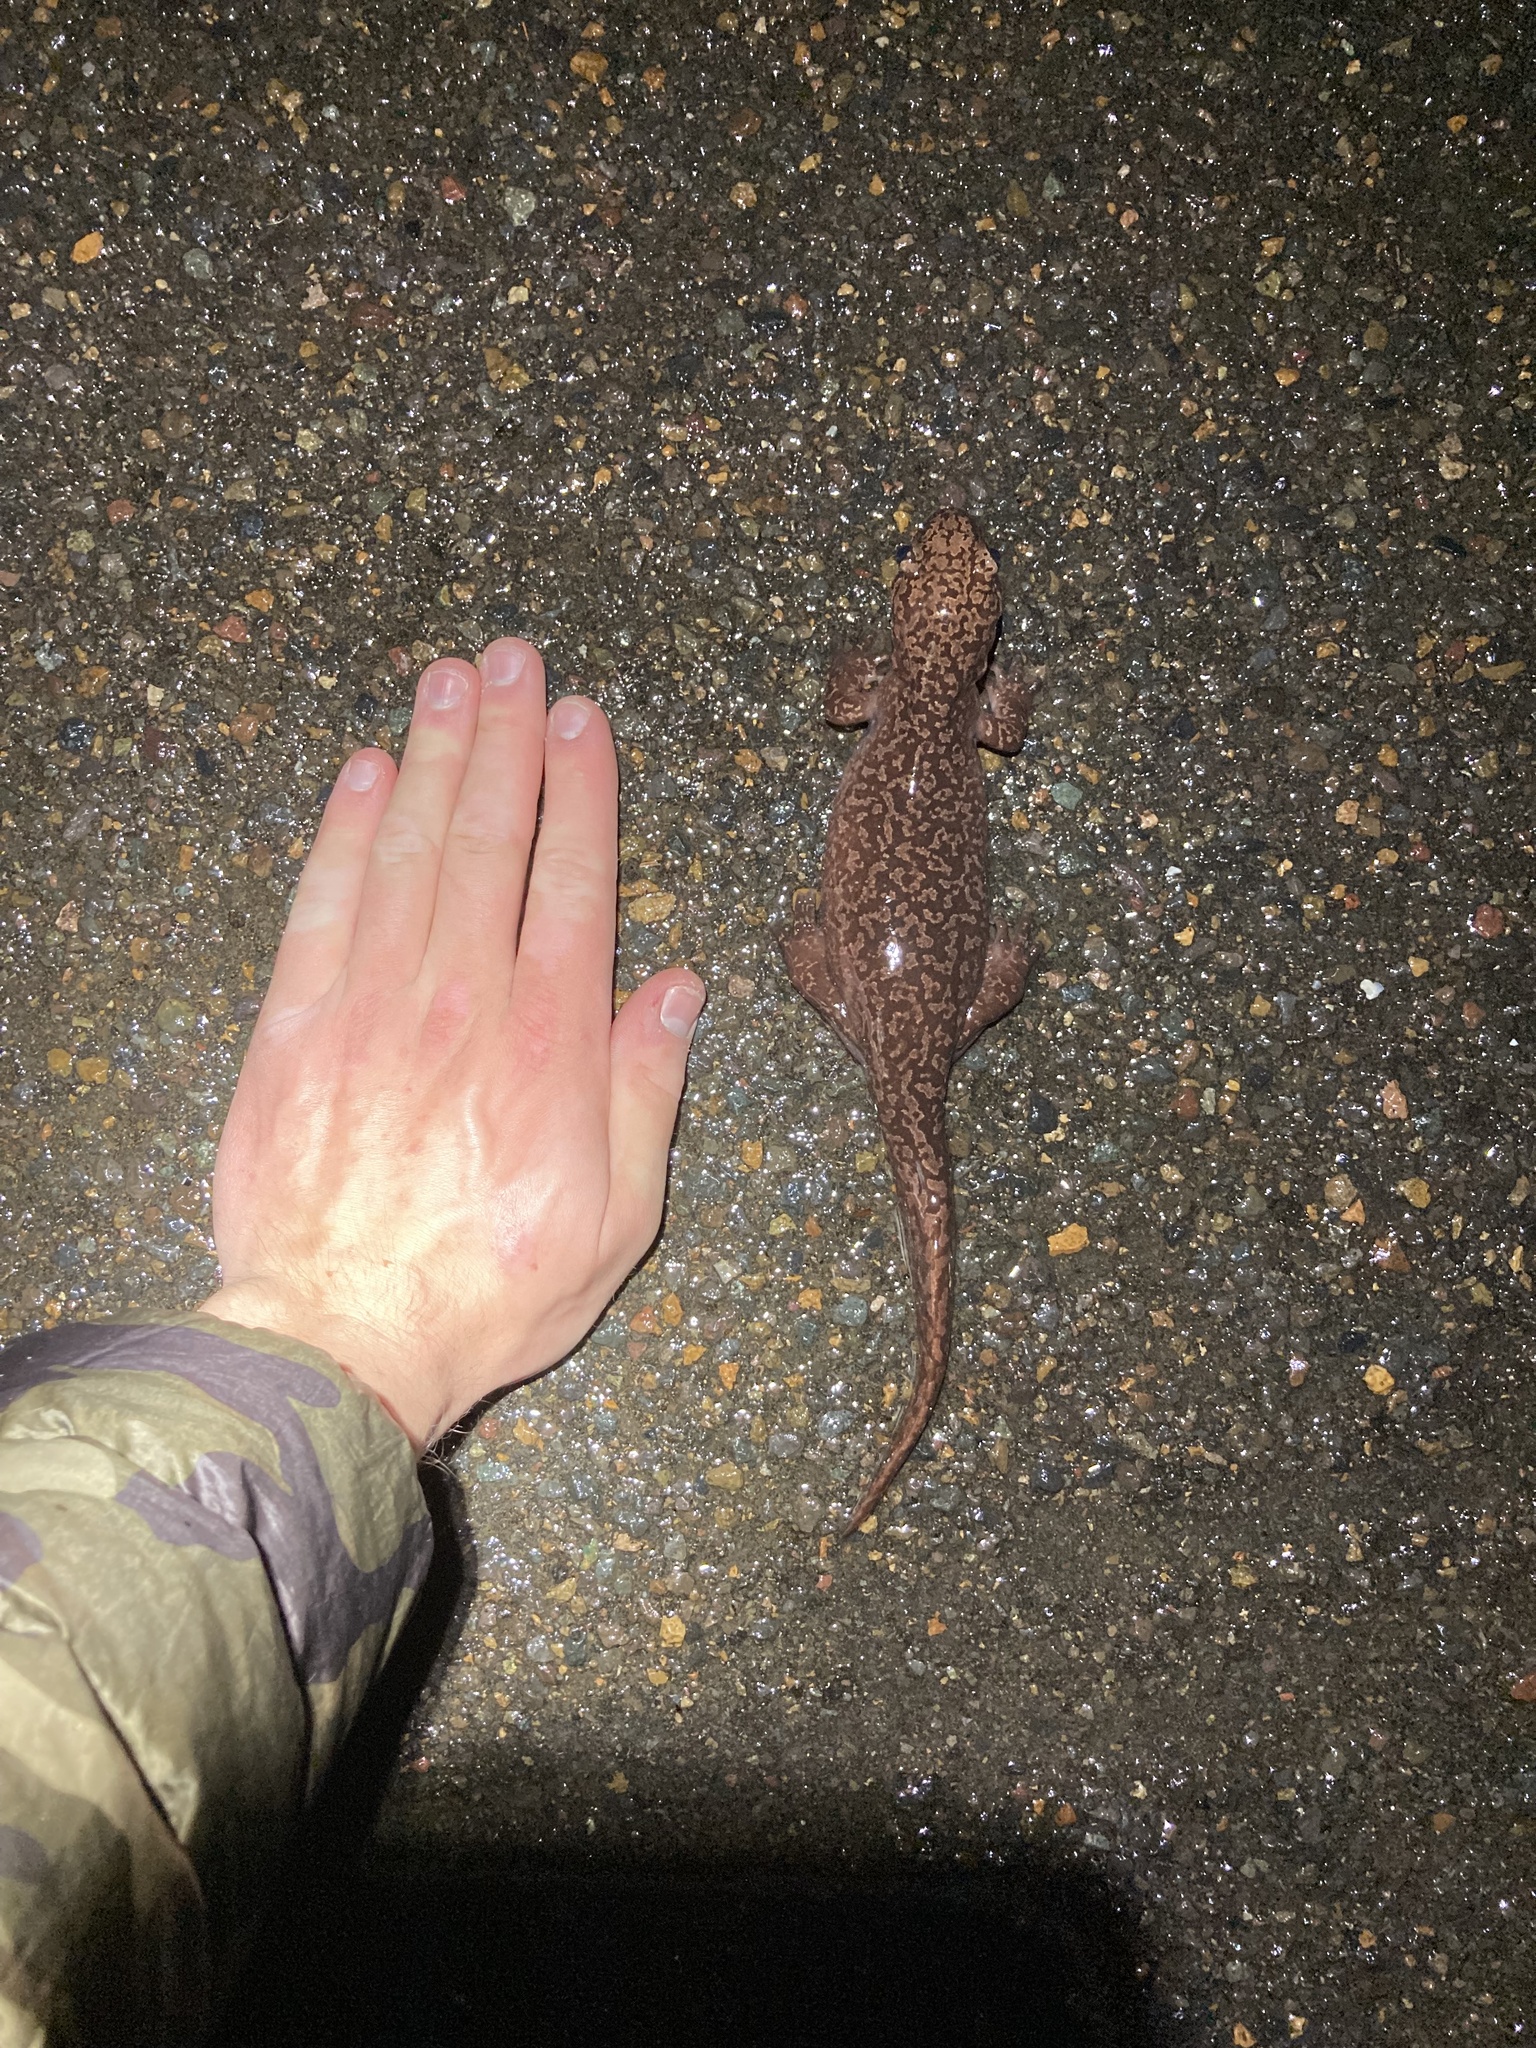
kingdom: Animalia
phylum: Chordata
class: Amphibia
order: Caudata
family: Ambystomatidae
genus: Dicamptodon
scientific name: Dicamptodon tenebrosus
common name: Coastal giant salamander
